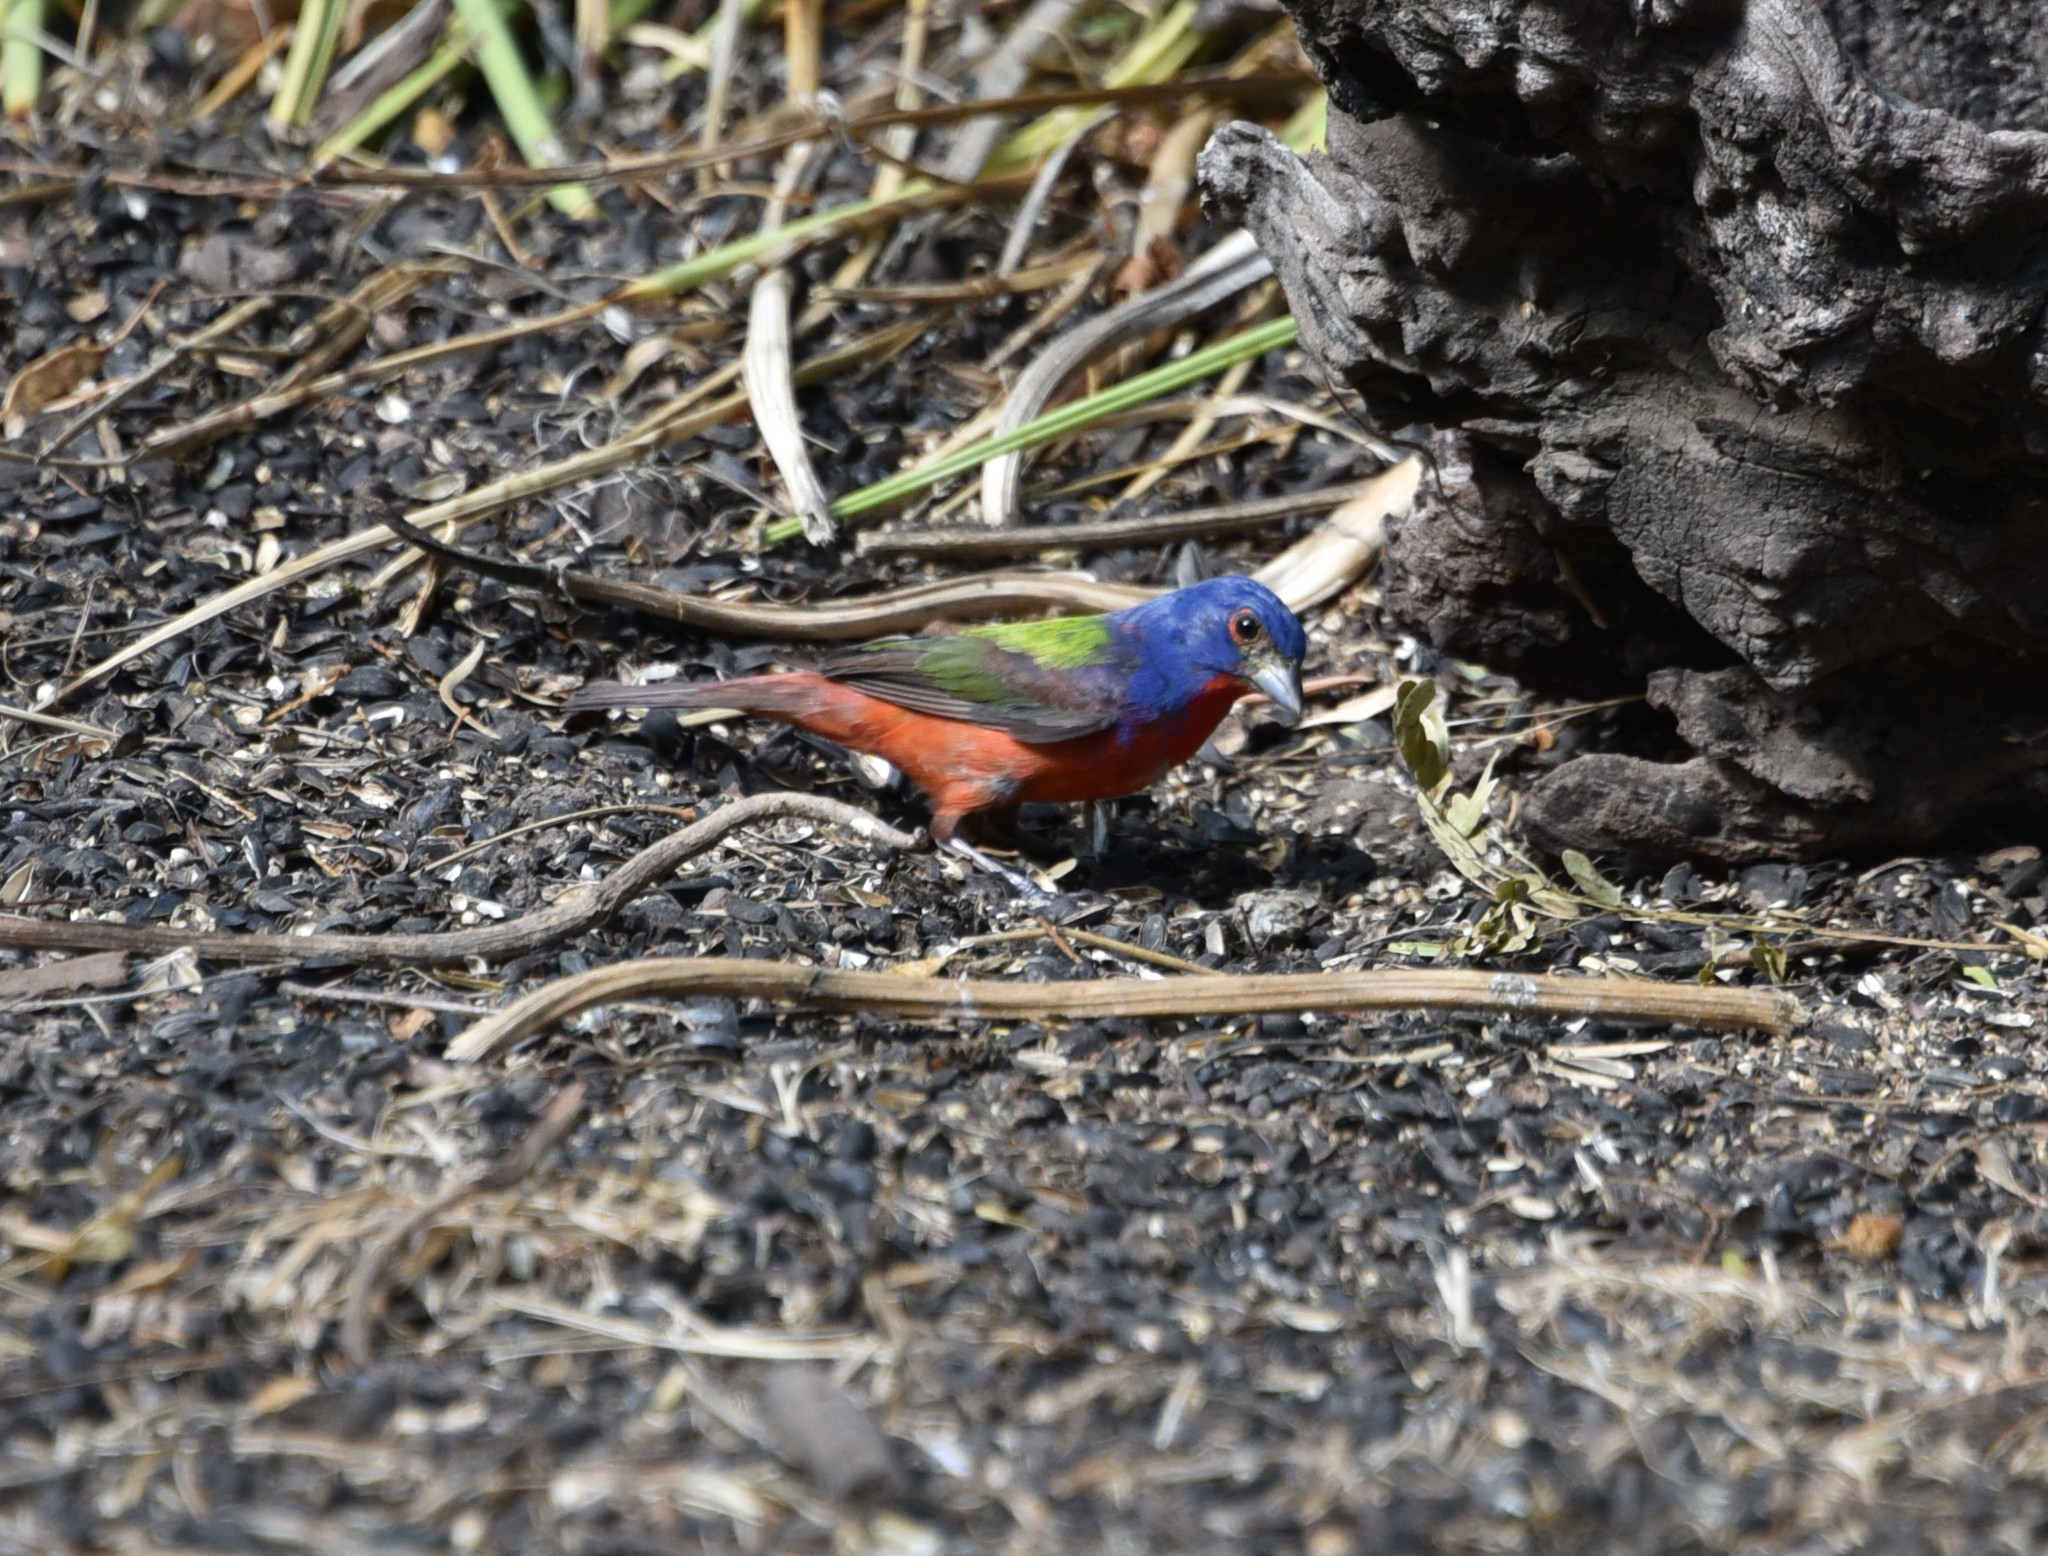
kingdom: Animalia
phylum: Chordata
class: Aves
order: Passeriformes
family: Cardinalidae
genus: Passerina
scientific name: Passerina ciris
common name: Painted bunting
